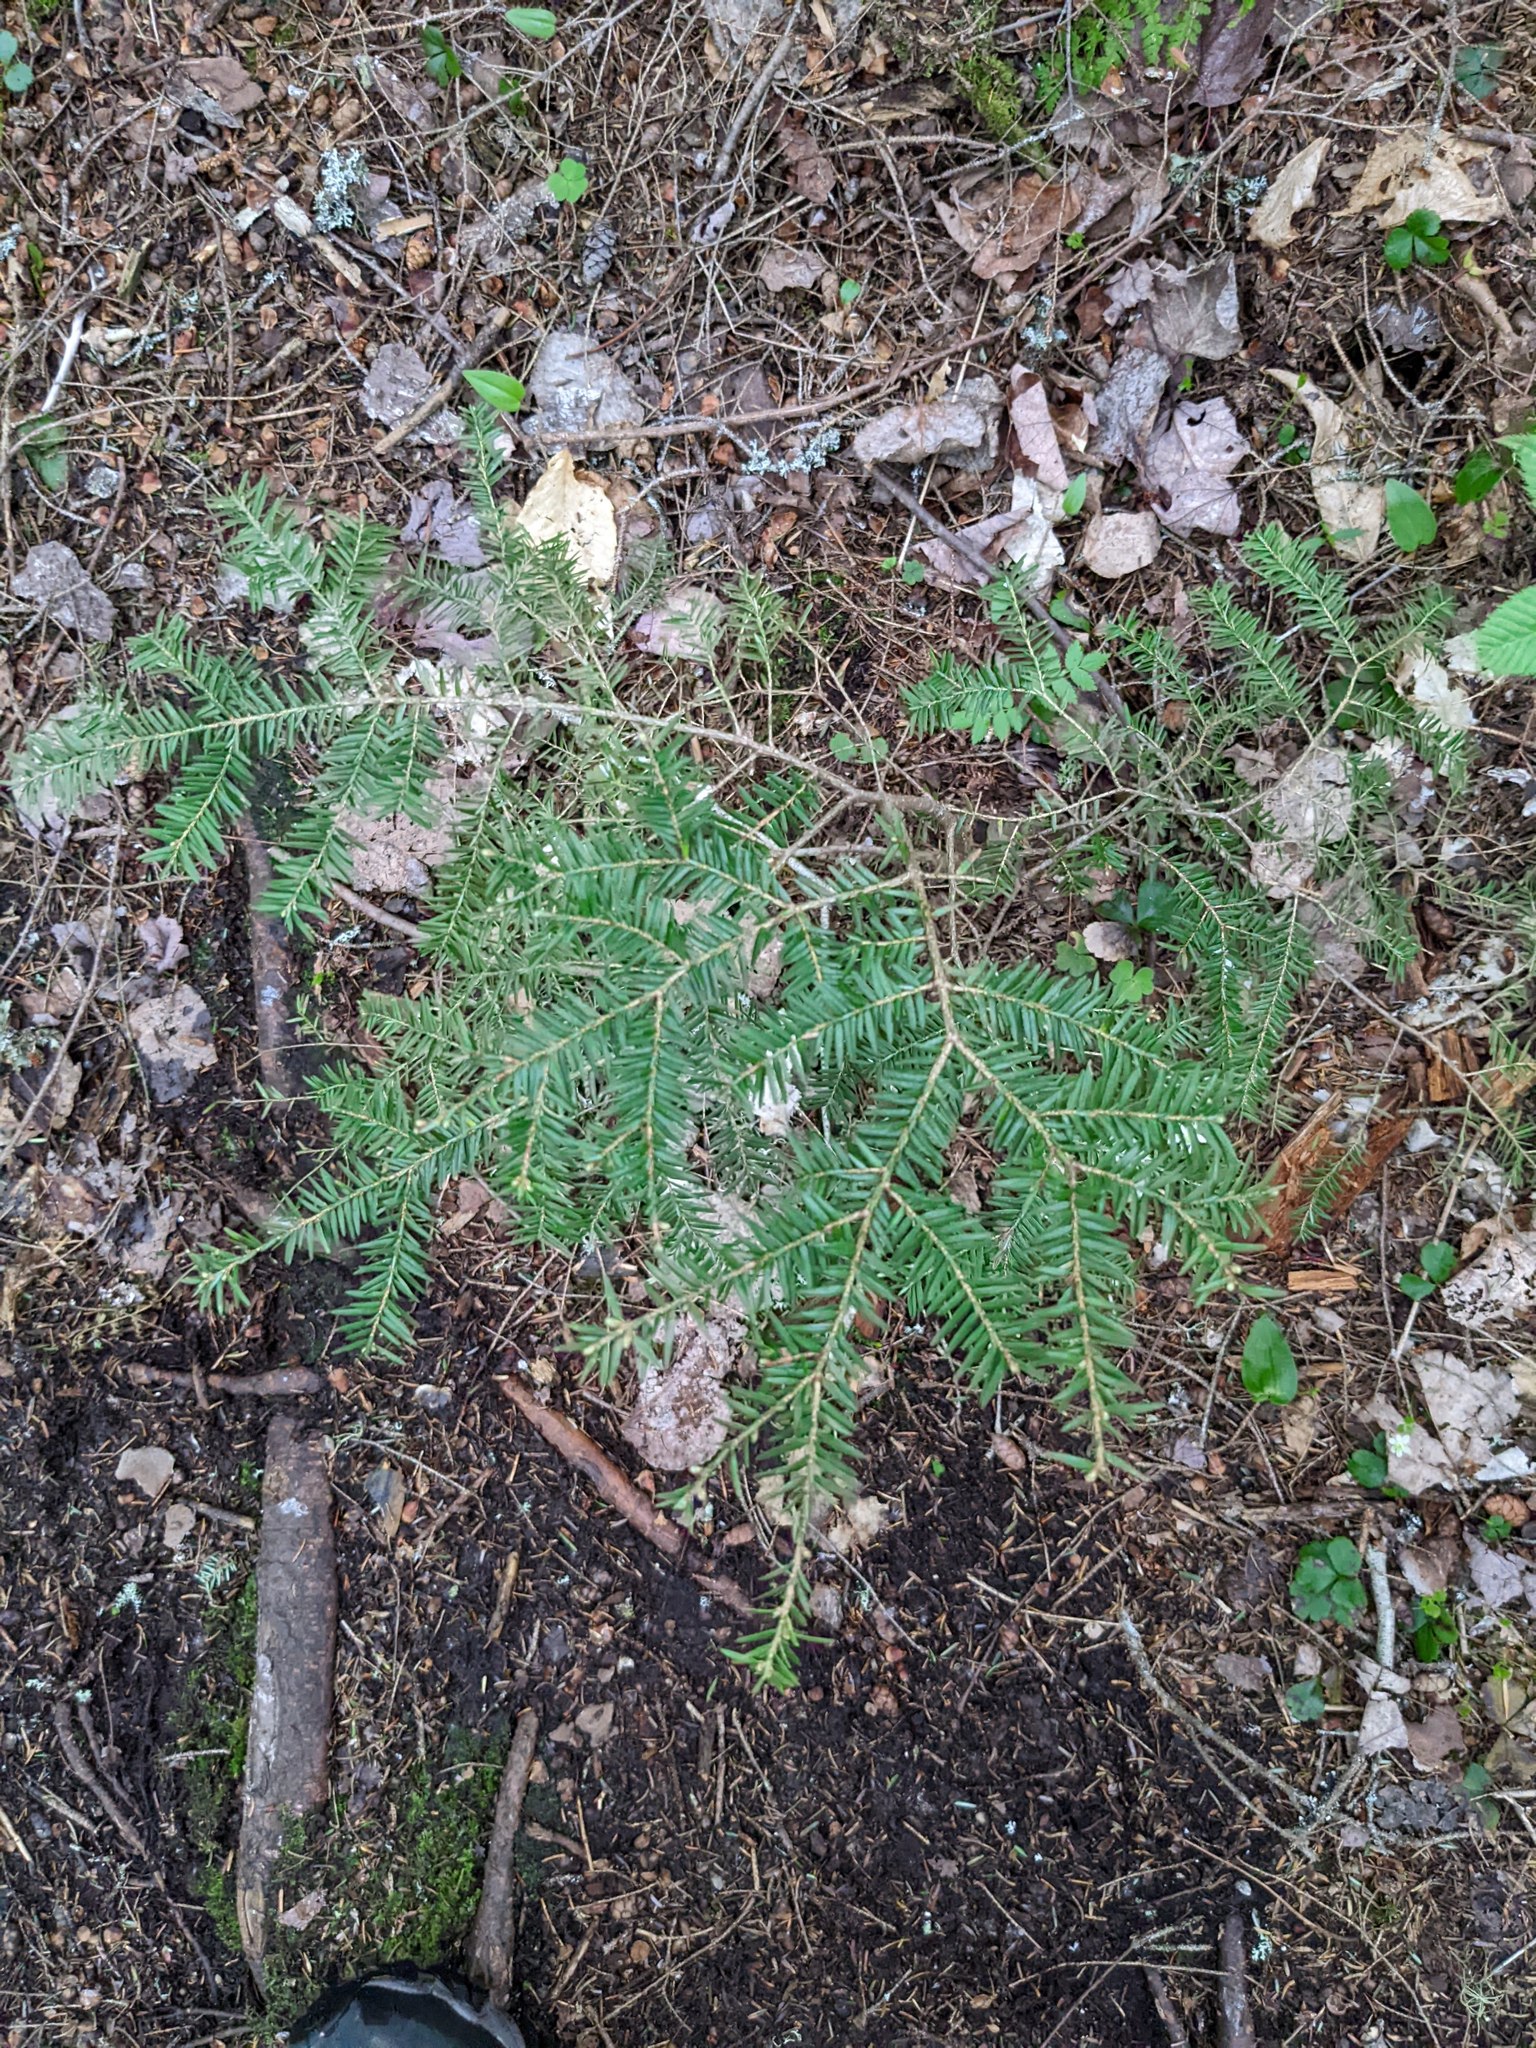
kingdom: Plantae
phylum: Tracheophyta
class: Pinopsida
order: Pinales
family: Pinaceae
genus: Tsuga
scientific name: Tsuga canadensis
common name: Eastern hemlock
